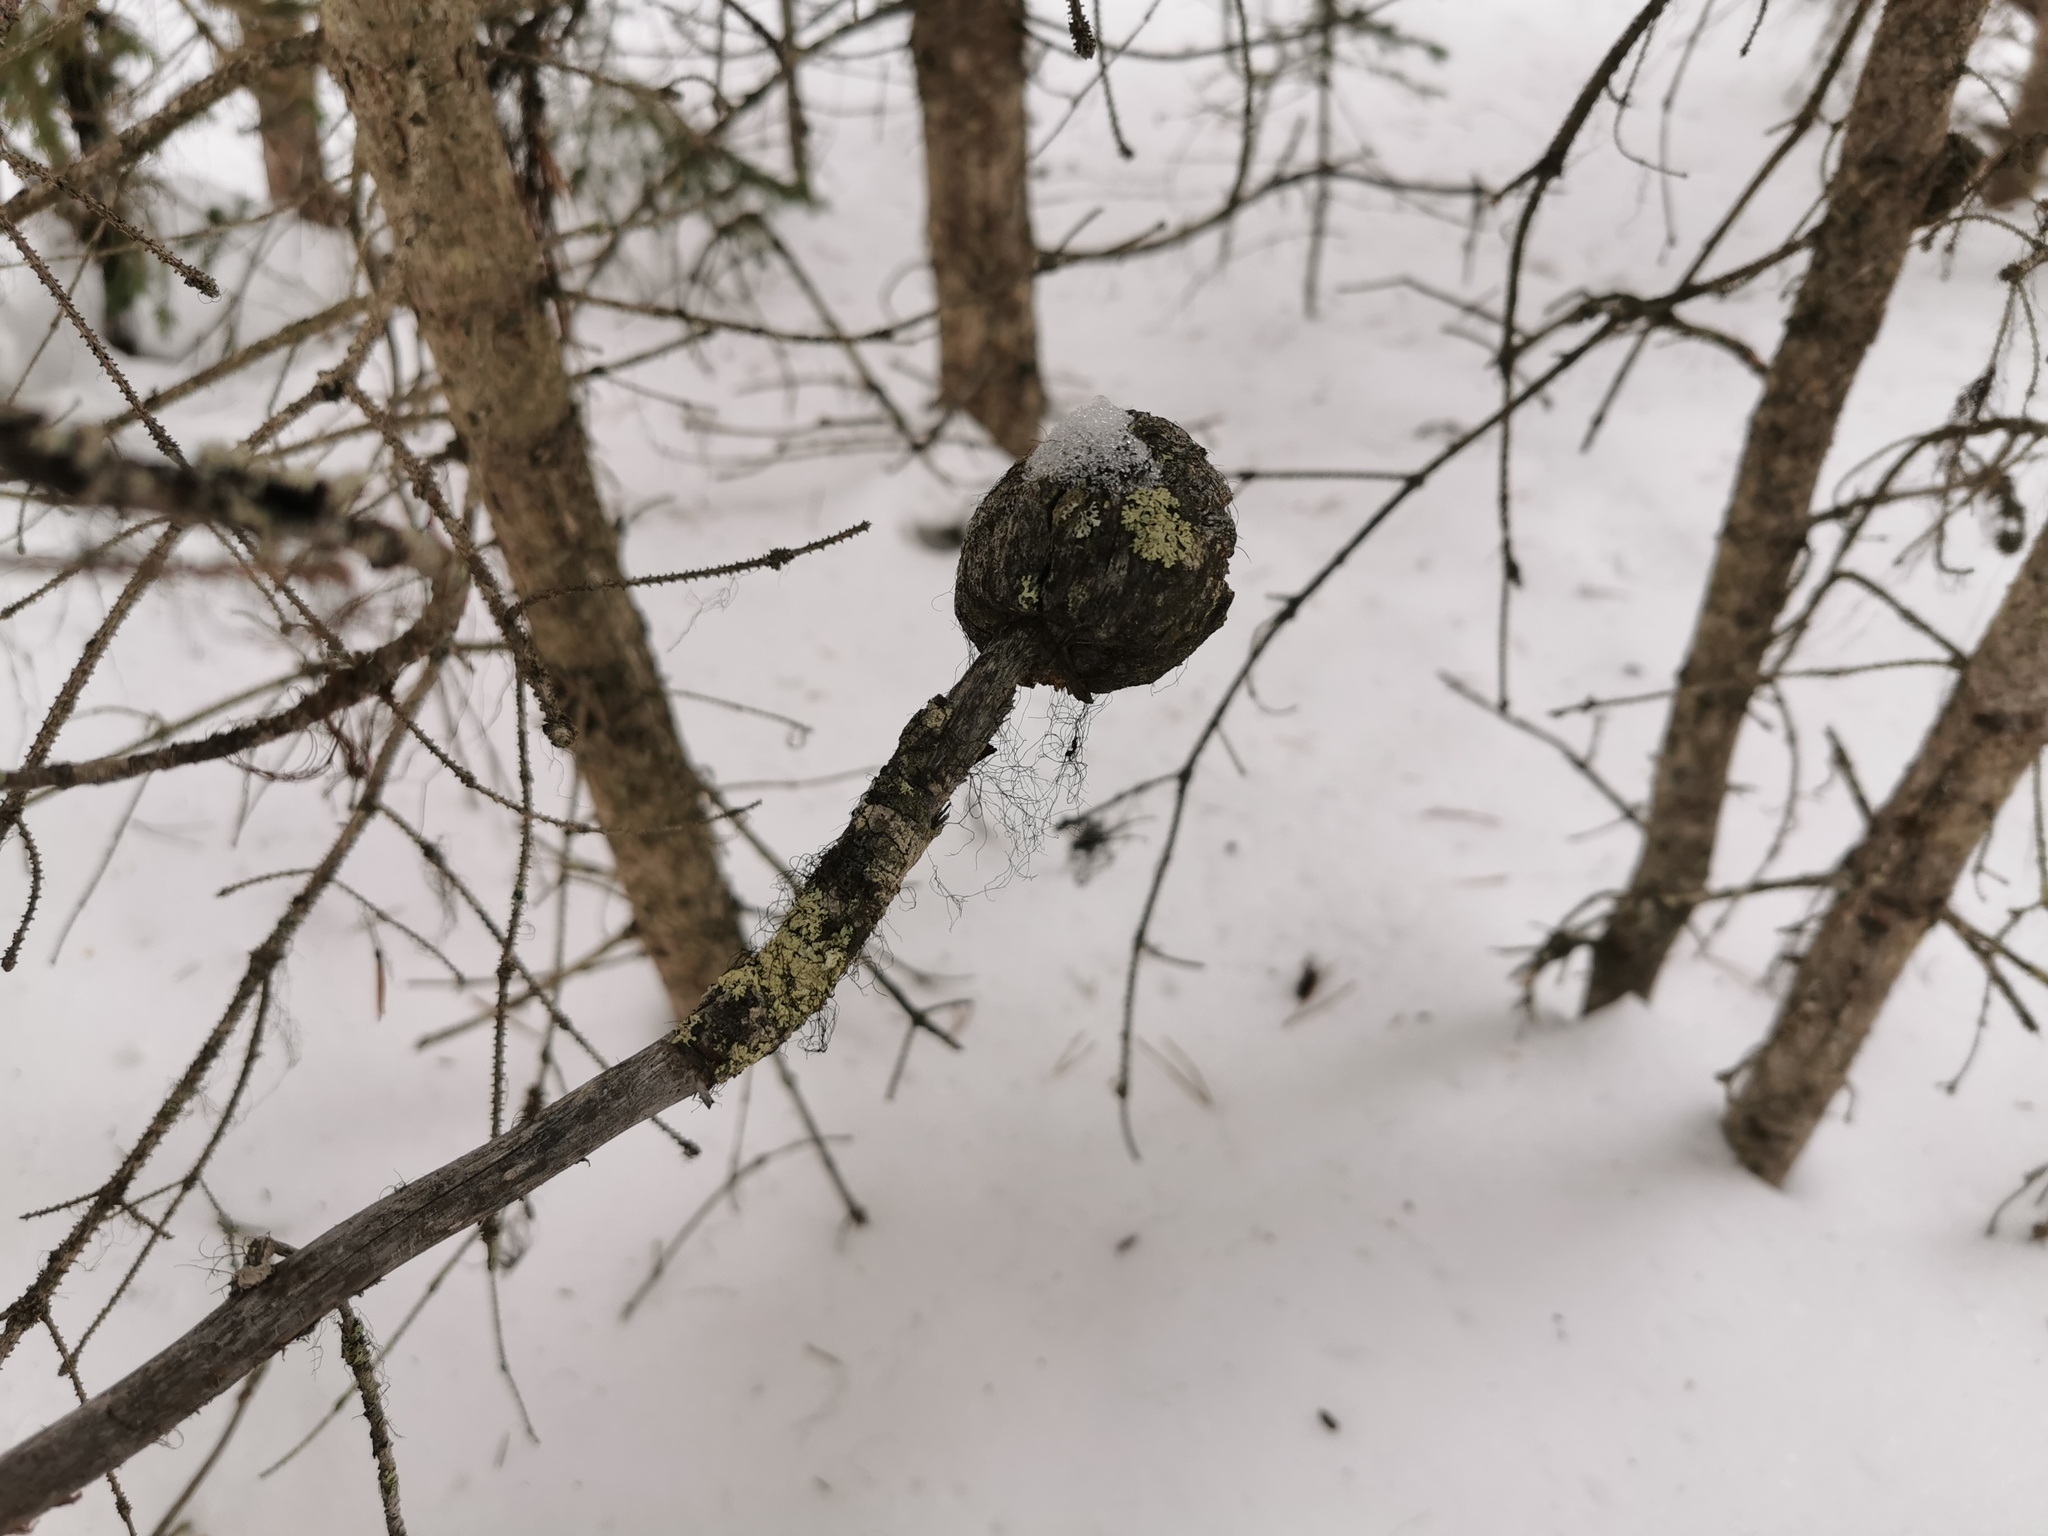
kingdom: Fungi
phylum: Basidiomycota
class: Pucciniomycetes
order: Pucciniales
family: Cronartiaceae
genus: Cronartium
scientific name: Cronartium harknessii
